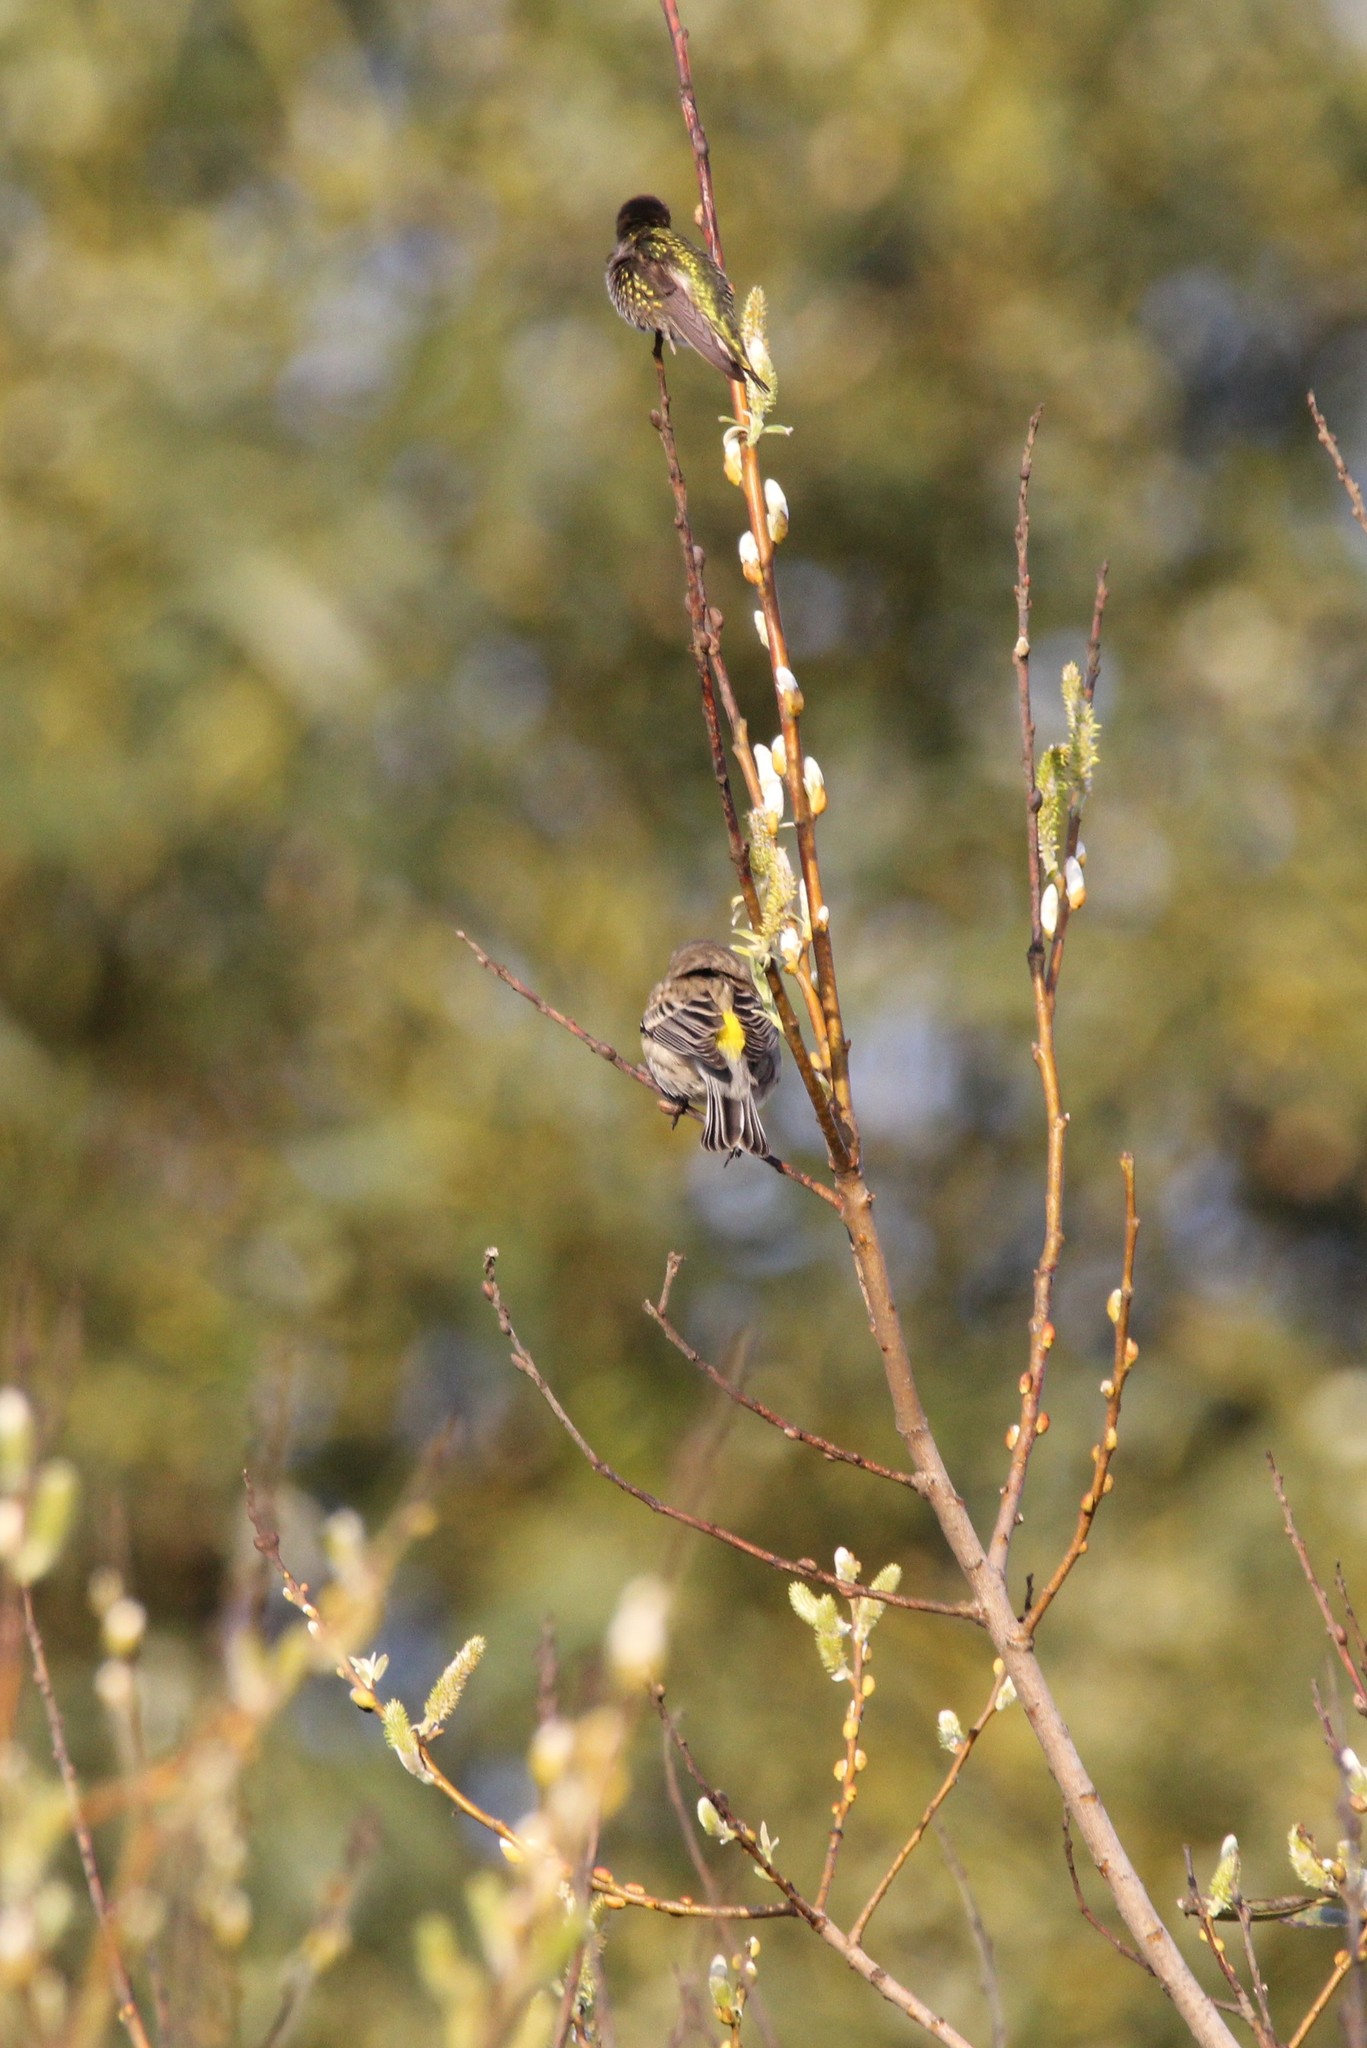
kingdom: Animalia
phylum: Chordata
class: Aves
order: Apodiformes
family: Trochilidae
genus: Calypte
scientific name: Calypte anna
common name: Anna's hummingbird
